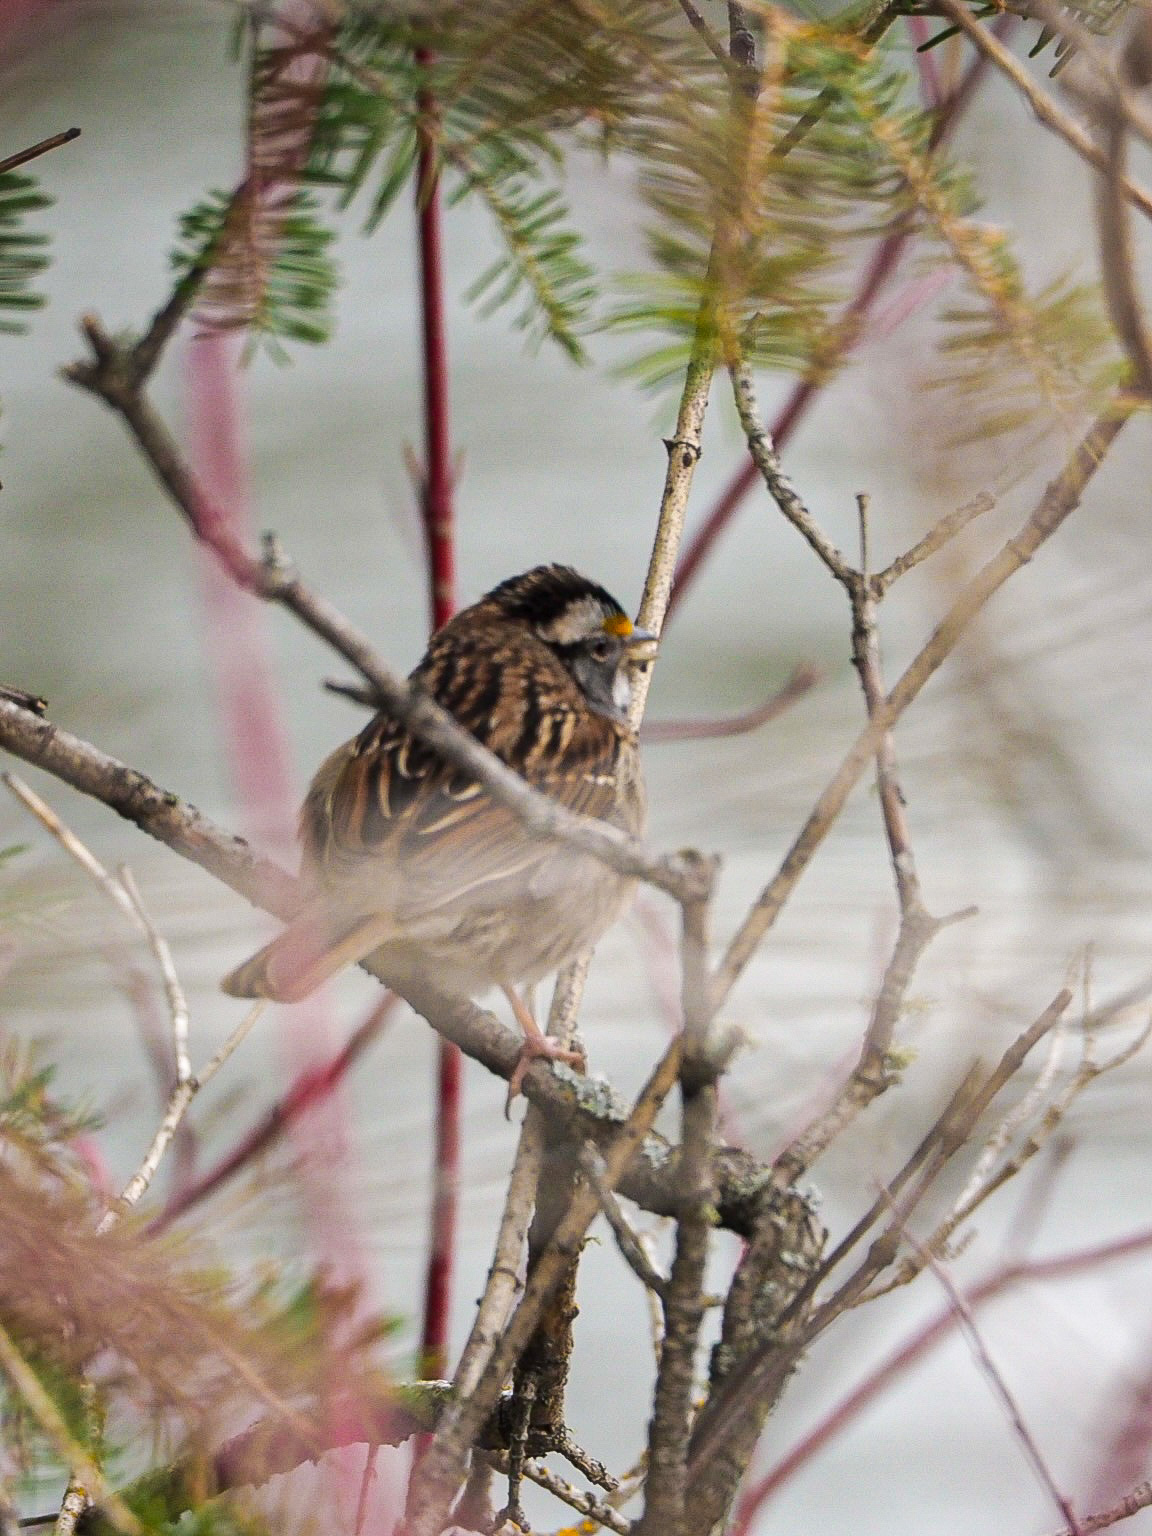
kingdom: Animalia
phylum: Chordata
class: Aves
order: Passeriformes
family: Passerellidae
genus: Zonotrichia
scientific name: Zonotrichia albicollis
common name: White-throated sparrow
